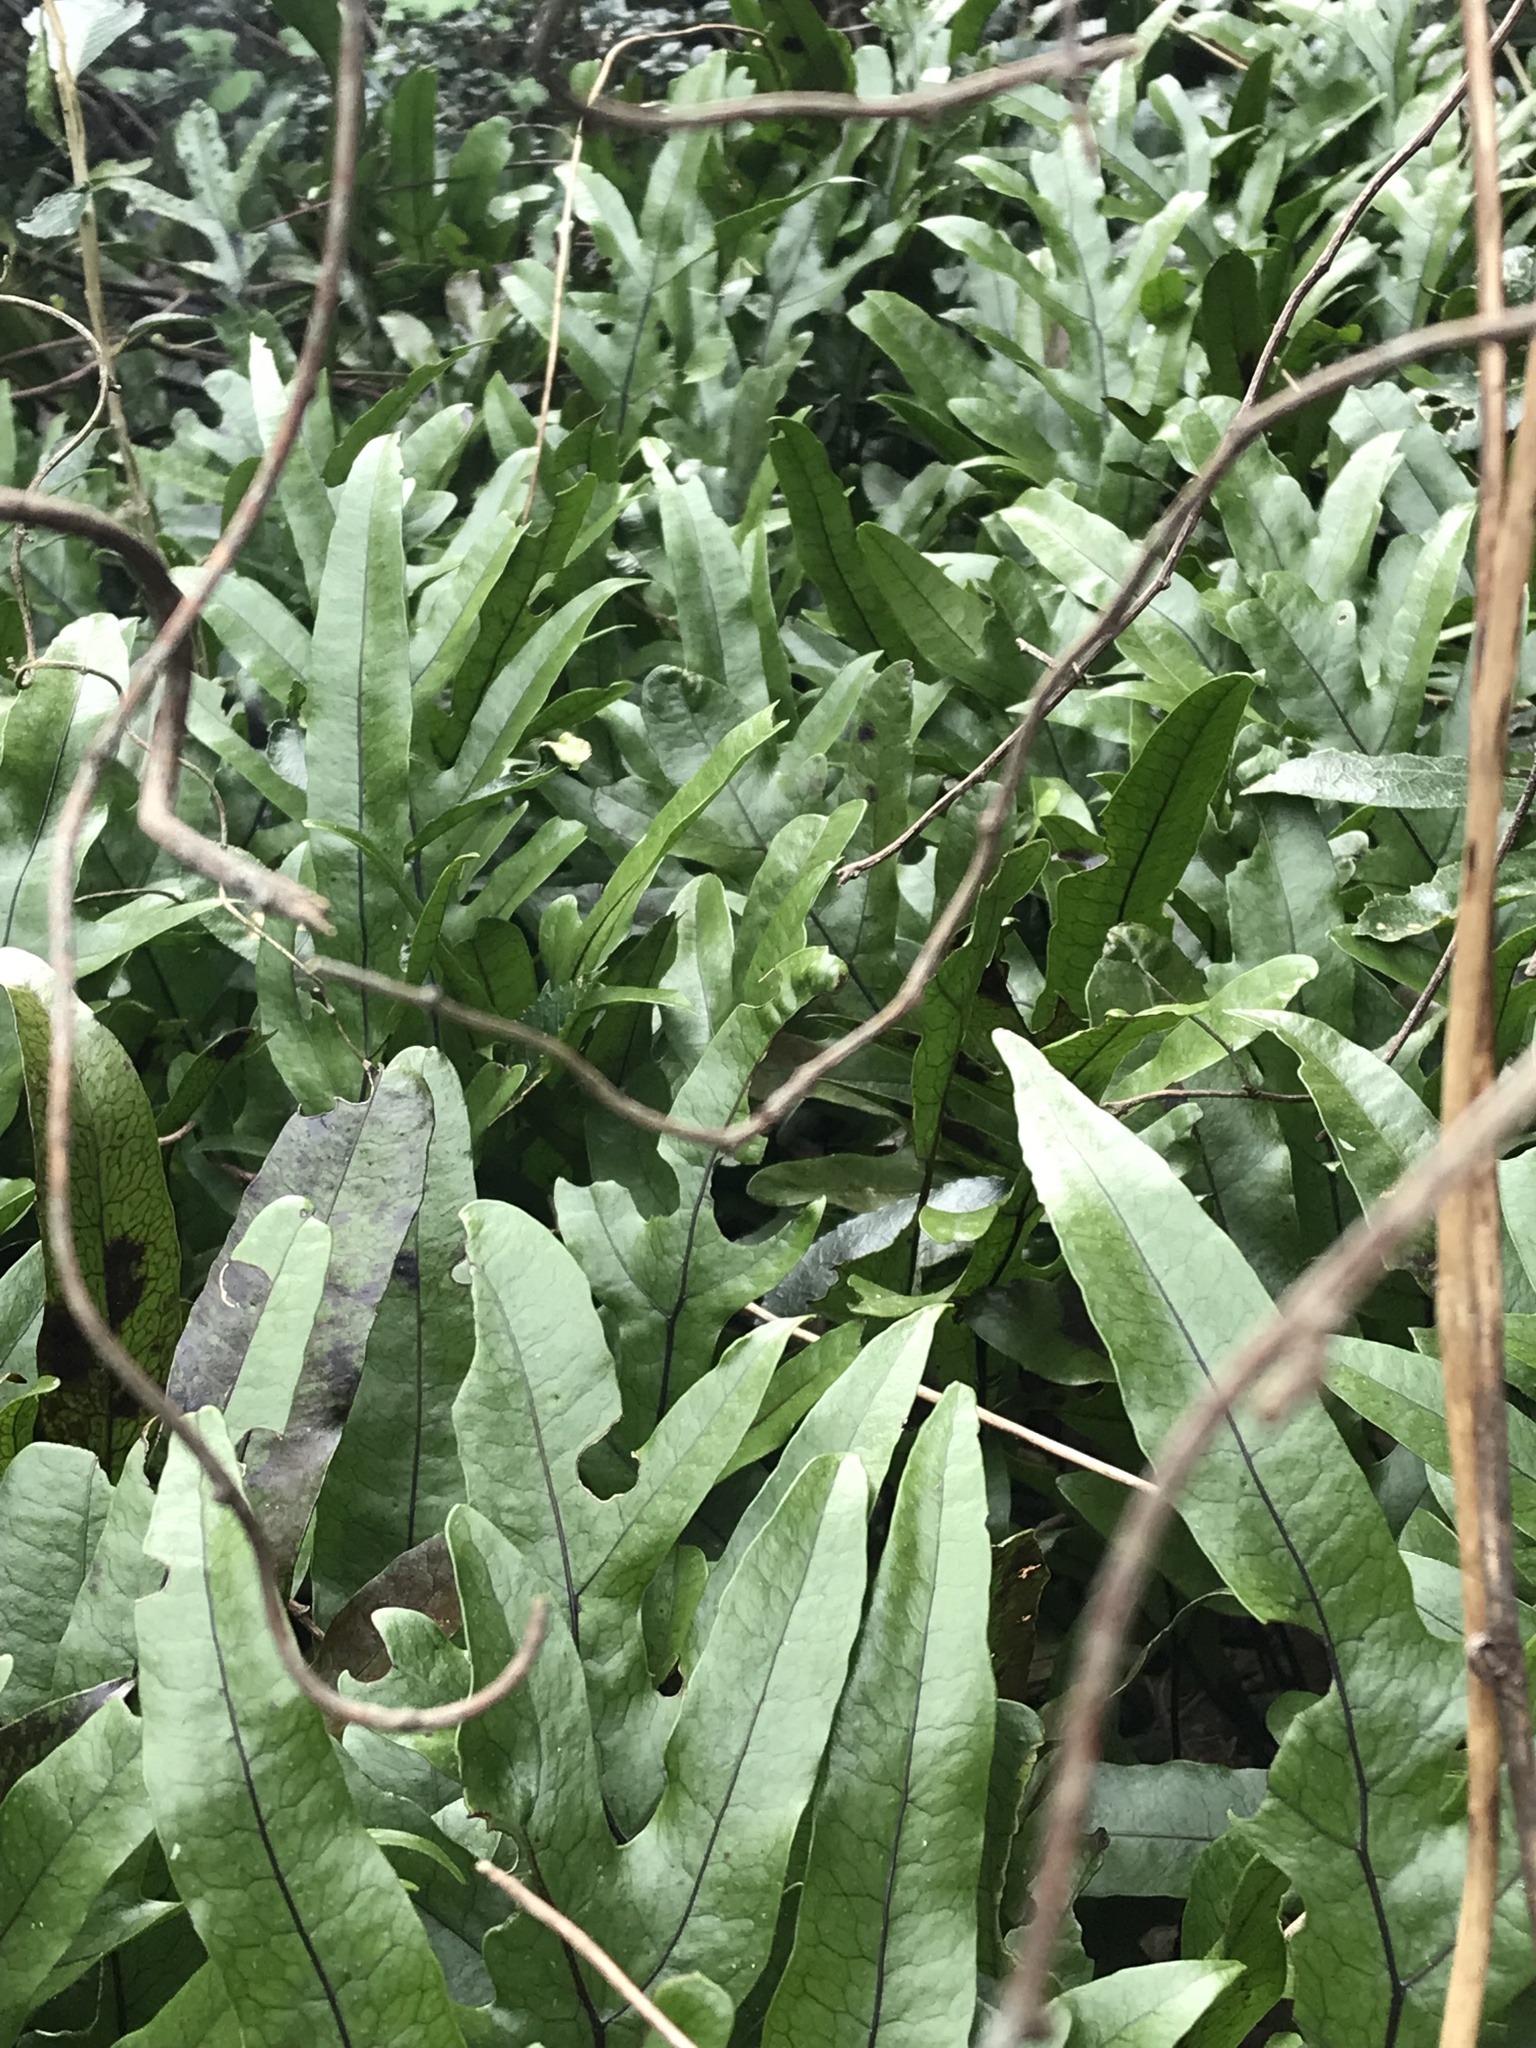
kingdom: Plantae
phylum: Tracheophyta
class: Polypodiopsida
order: Polypodiales
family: Polypodiaceae
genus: Lecanopteris
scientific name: Lecanopteris pustulata
